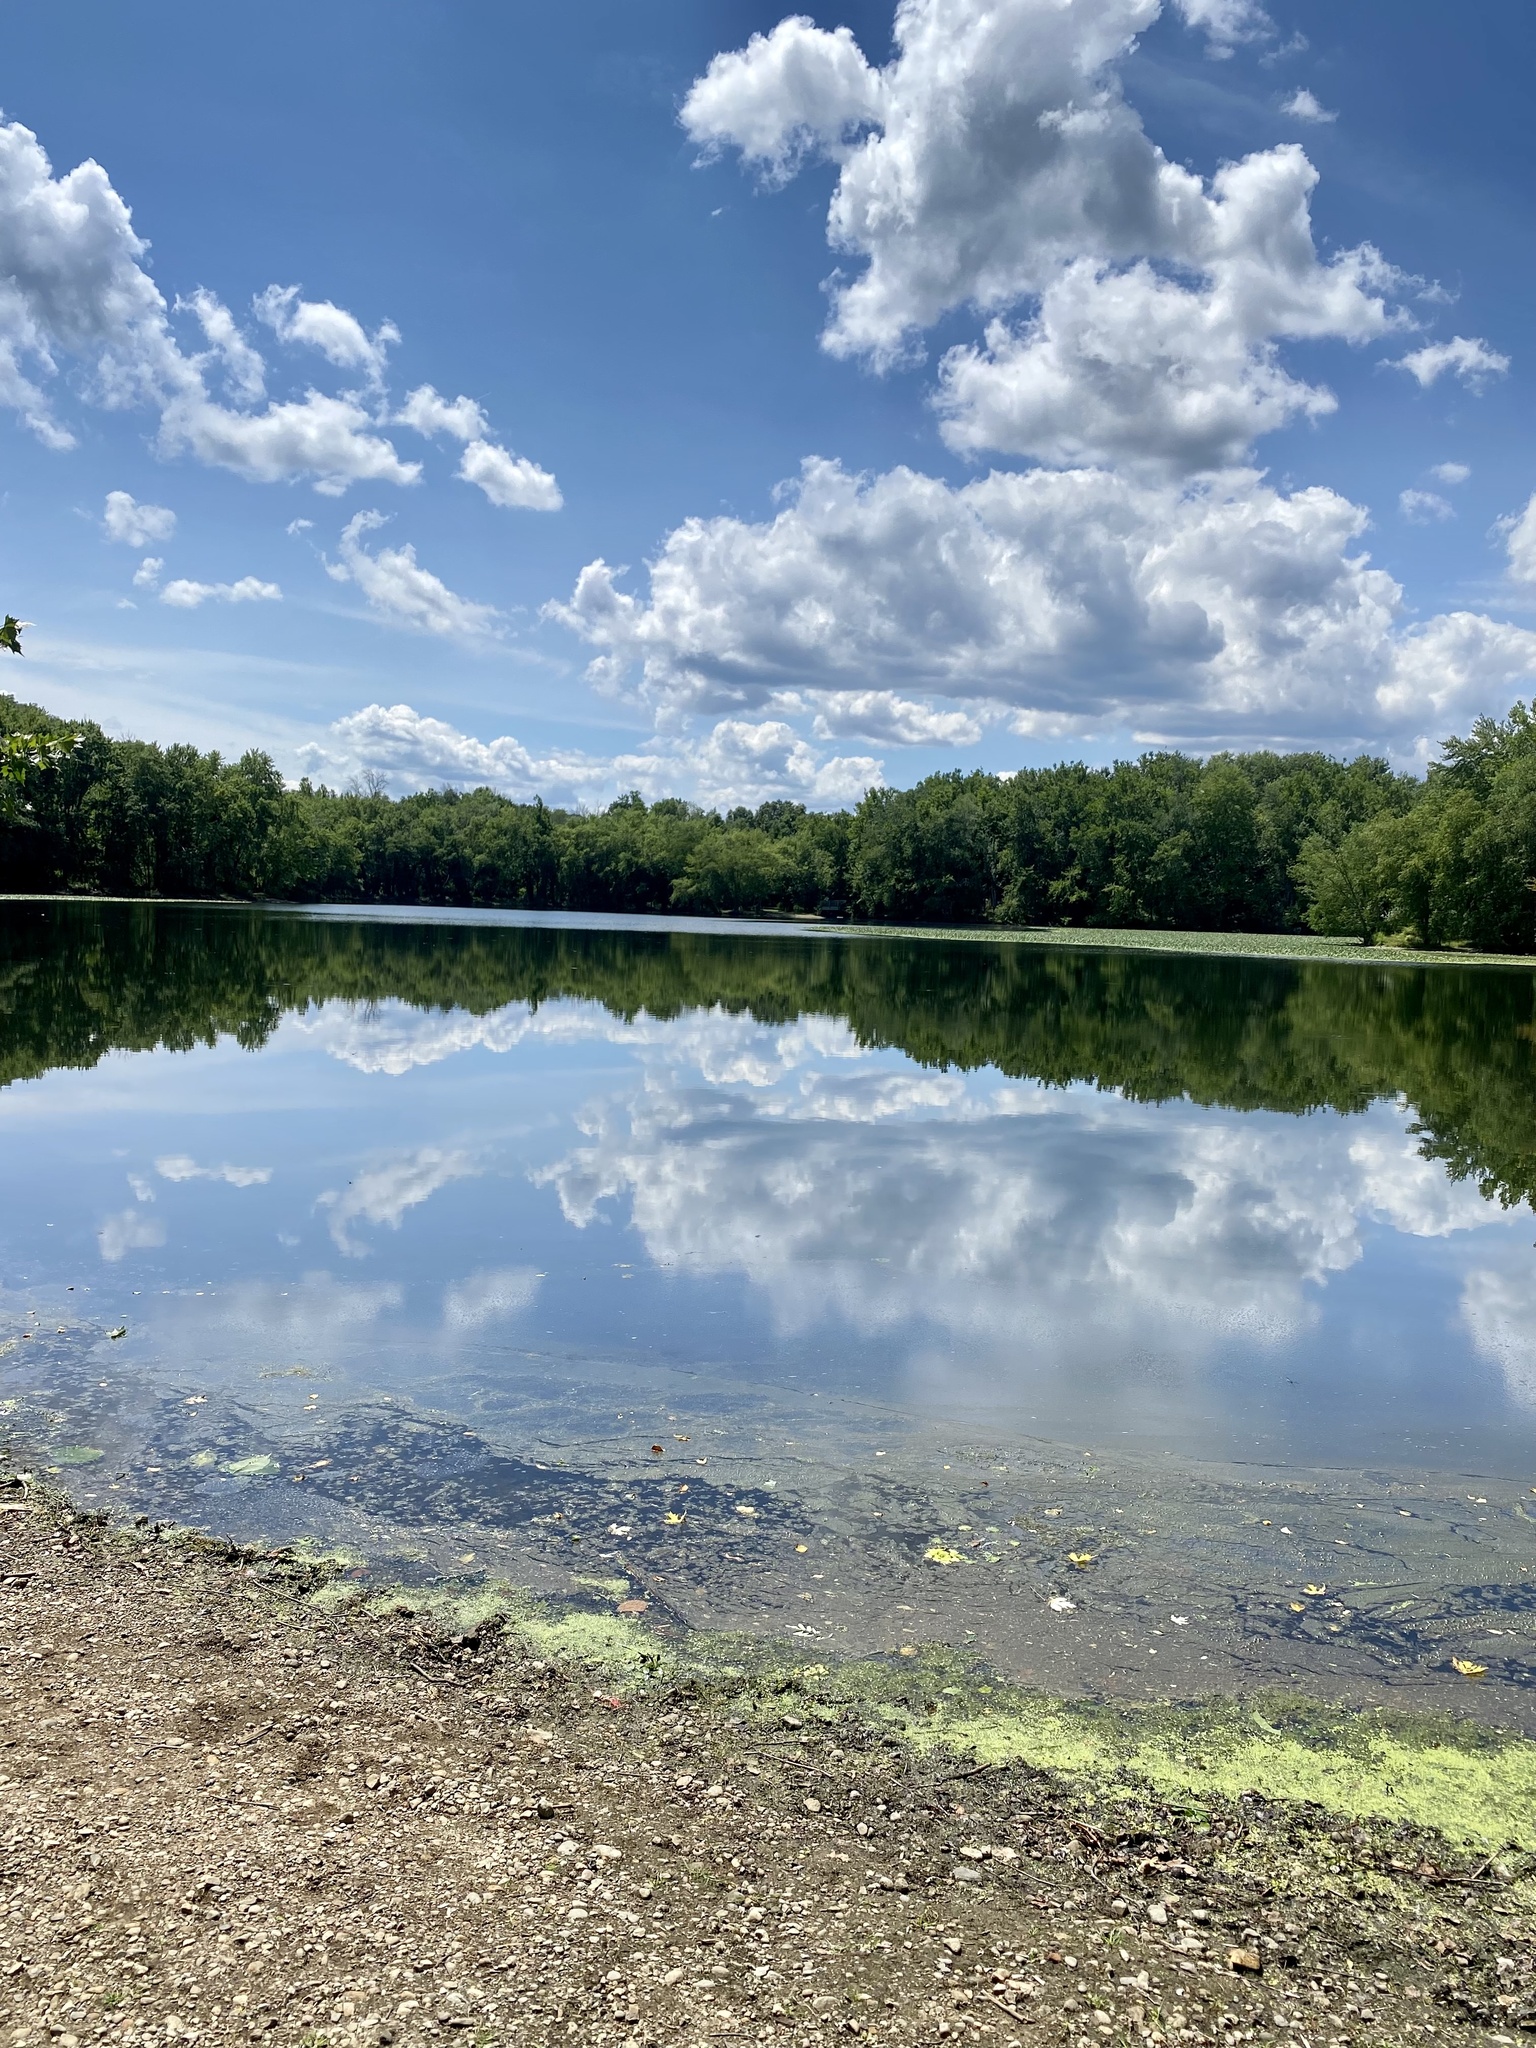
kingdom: Animalia
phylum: Chordata
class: Aves
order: Anseriformes
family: Anatidae
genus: Branta
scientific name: Branta canadensis
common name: Canada goose
